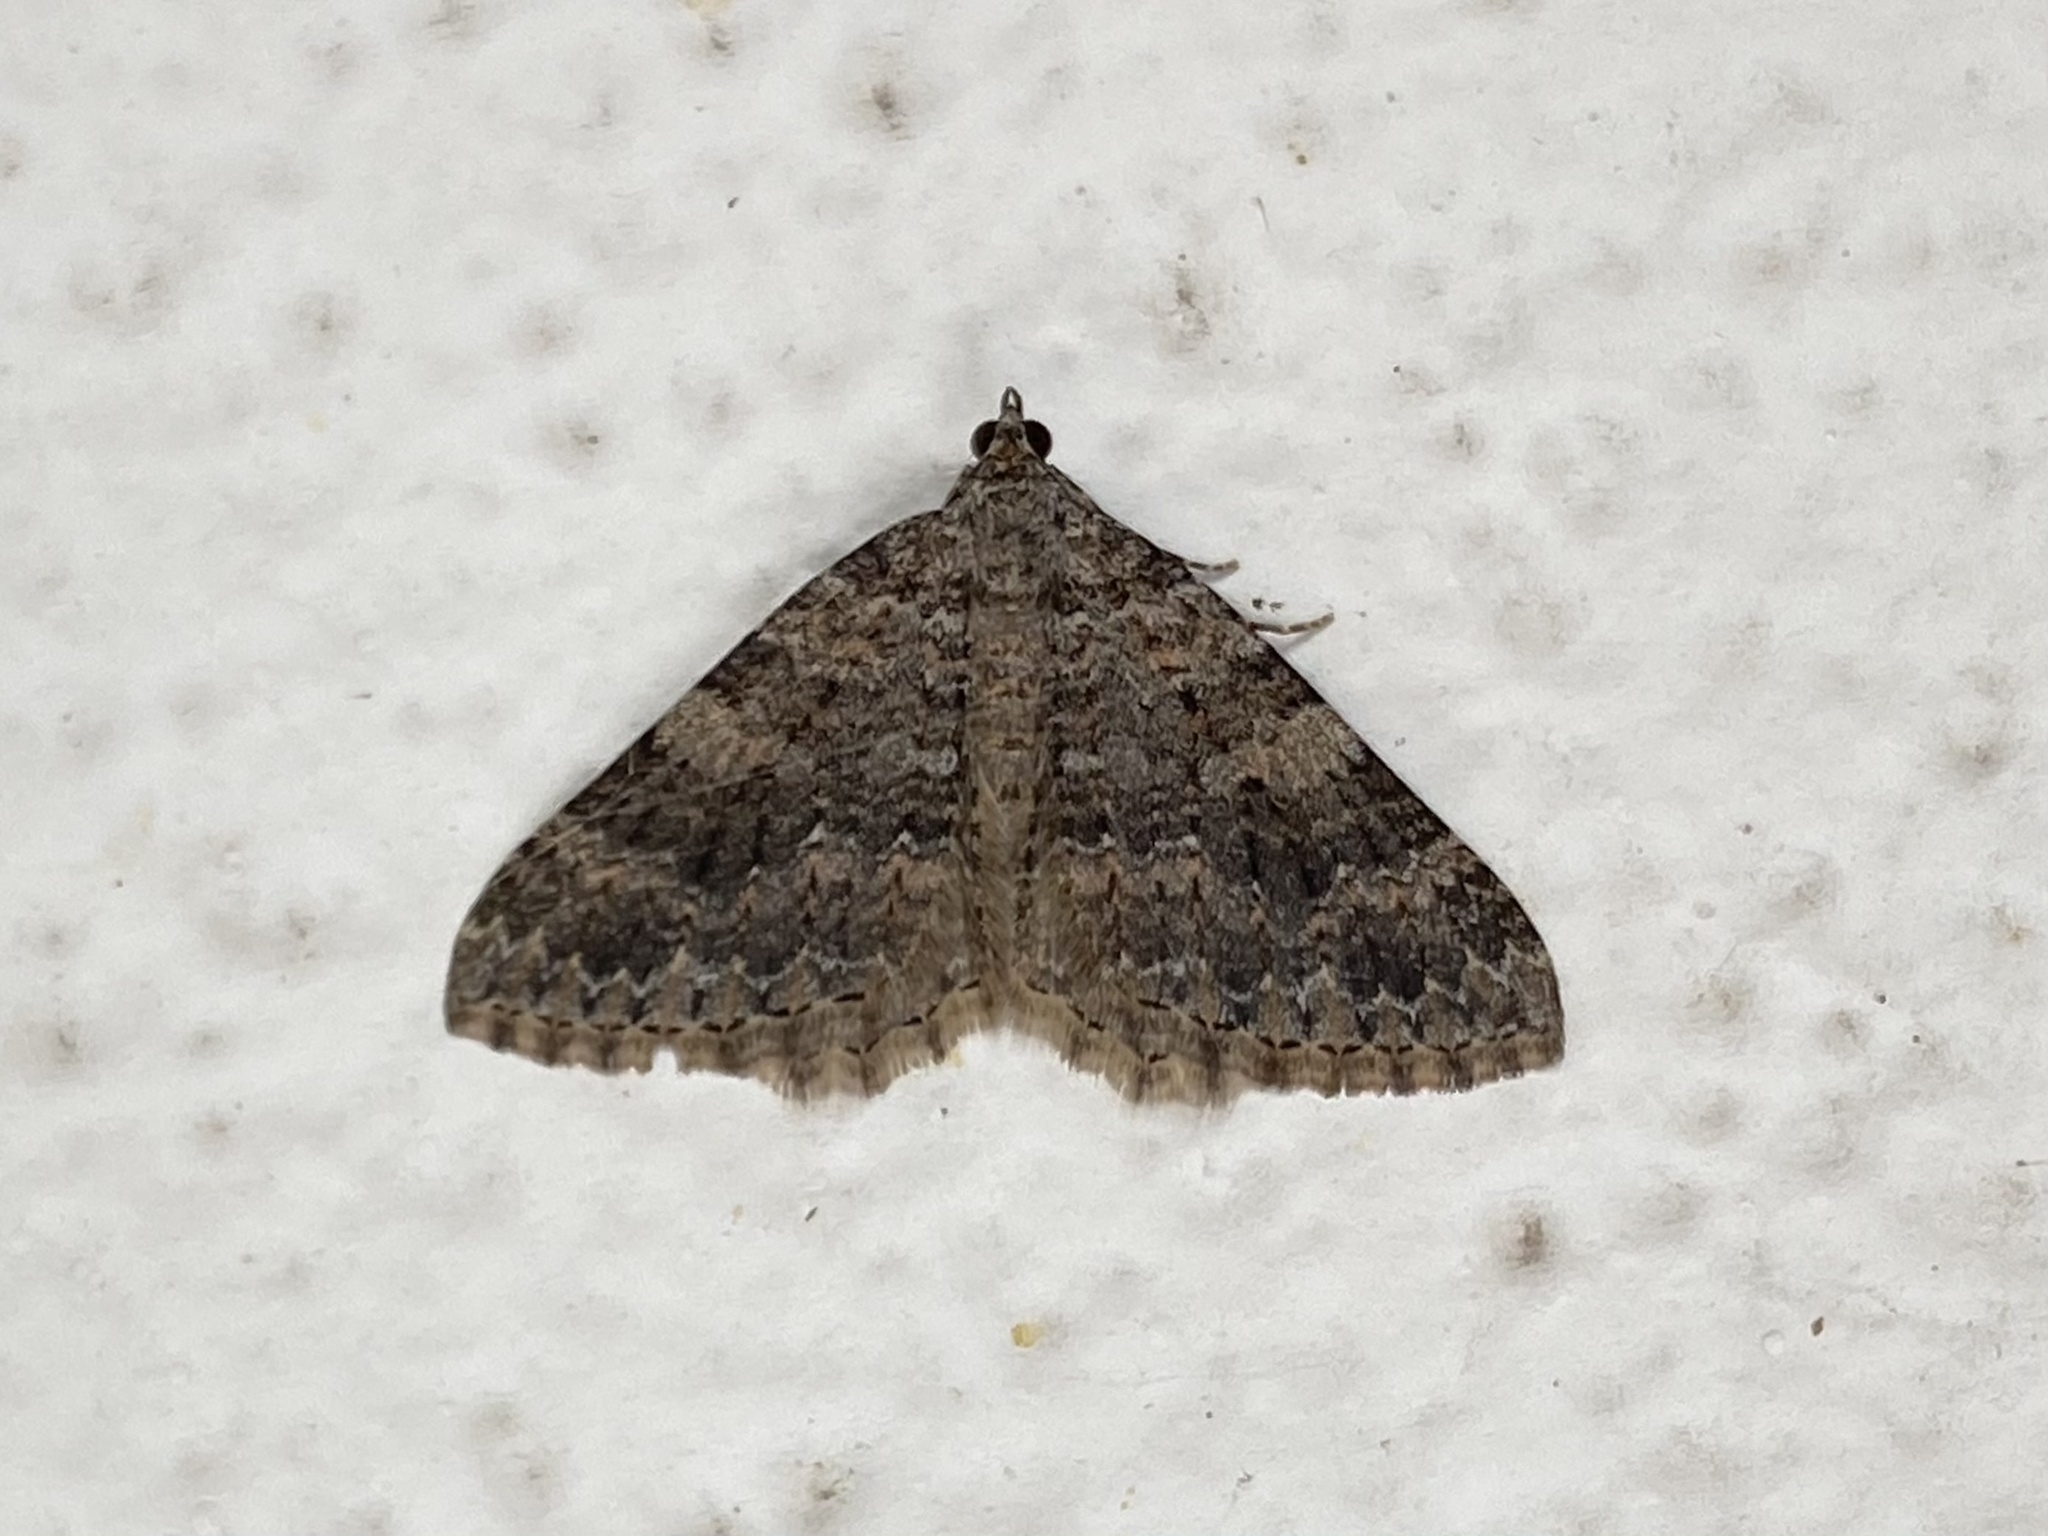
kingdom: Animalia
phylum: Arthropoda
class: Insecta
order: Lepidoptera
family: Geometridae
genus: Archirhoe
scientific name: Archirhoe neomexicana
